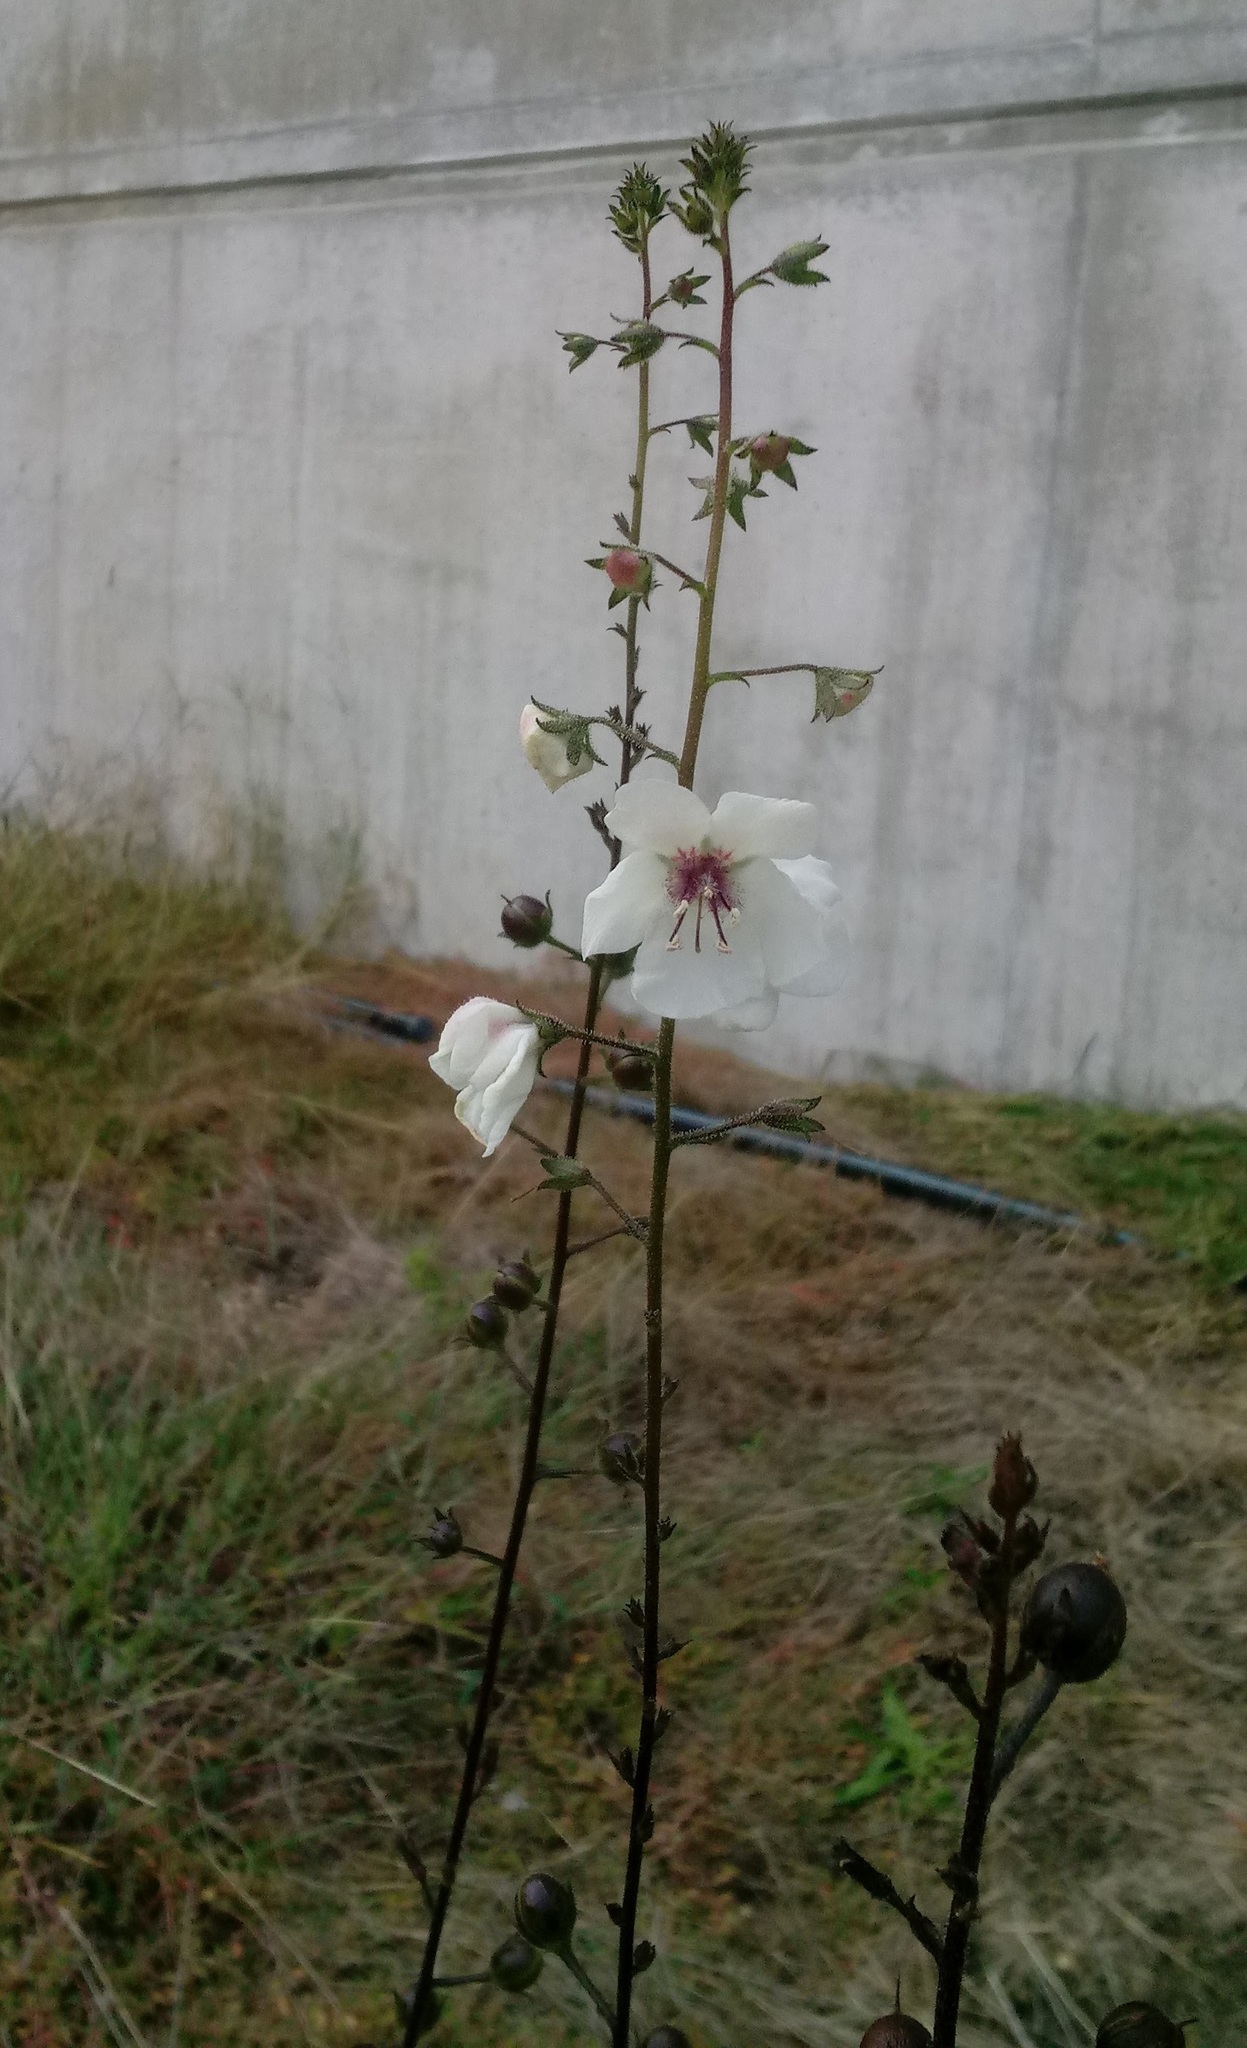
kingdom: Plantae
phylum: Tracheophyta
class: Magnoliopsida
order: Lamiales
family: Scrophulariaceae
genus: Verbascum
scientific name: Verbascum blattaria
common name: Moth mullein
